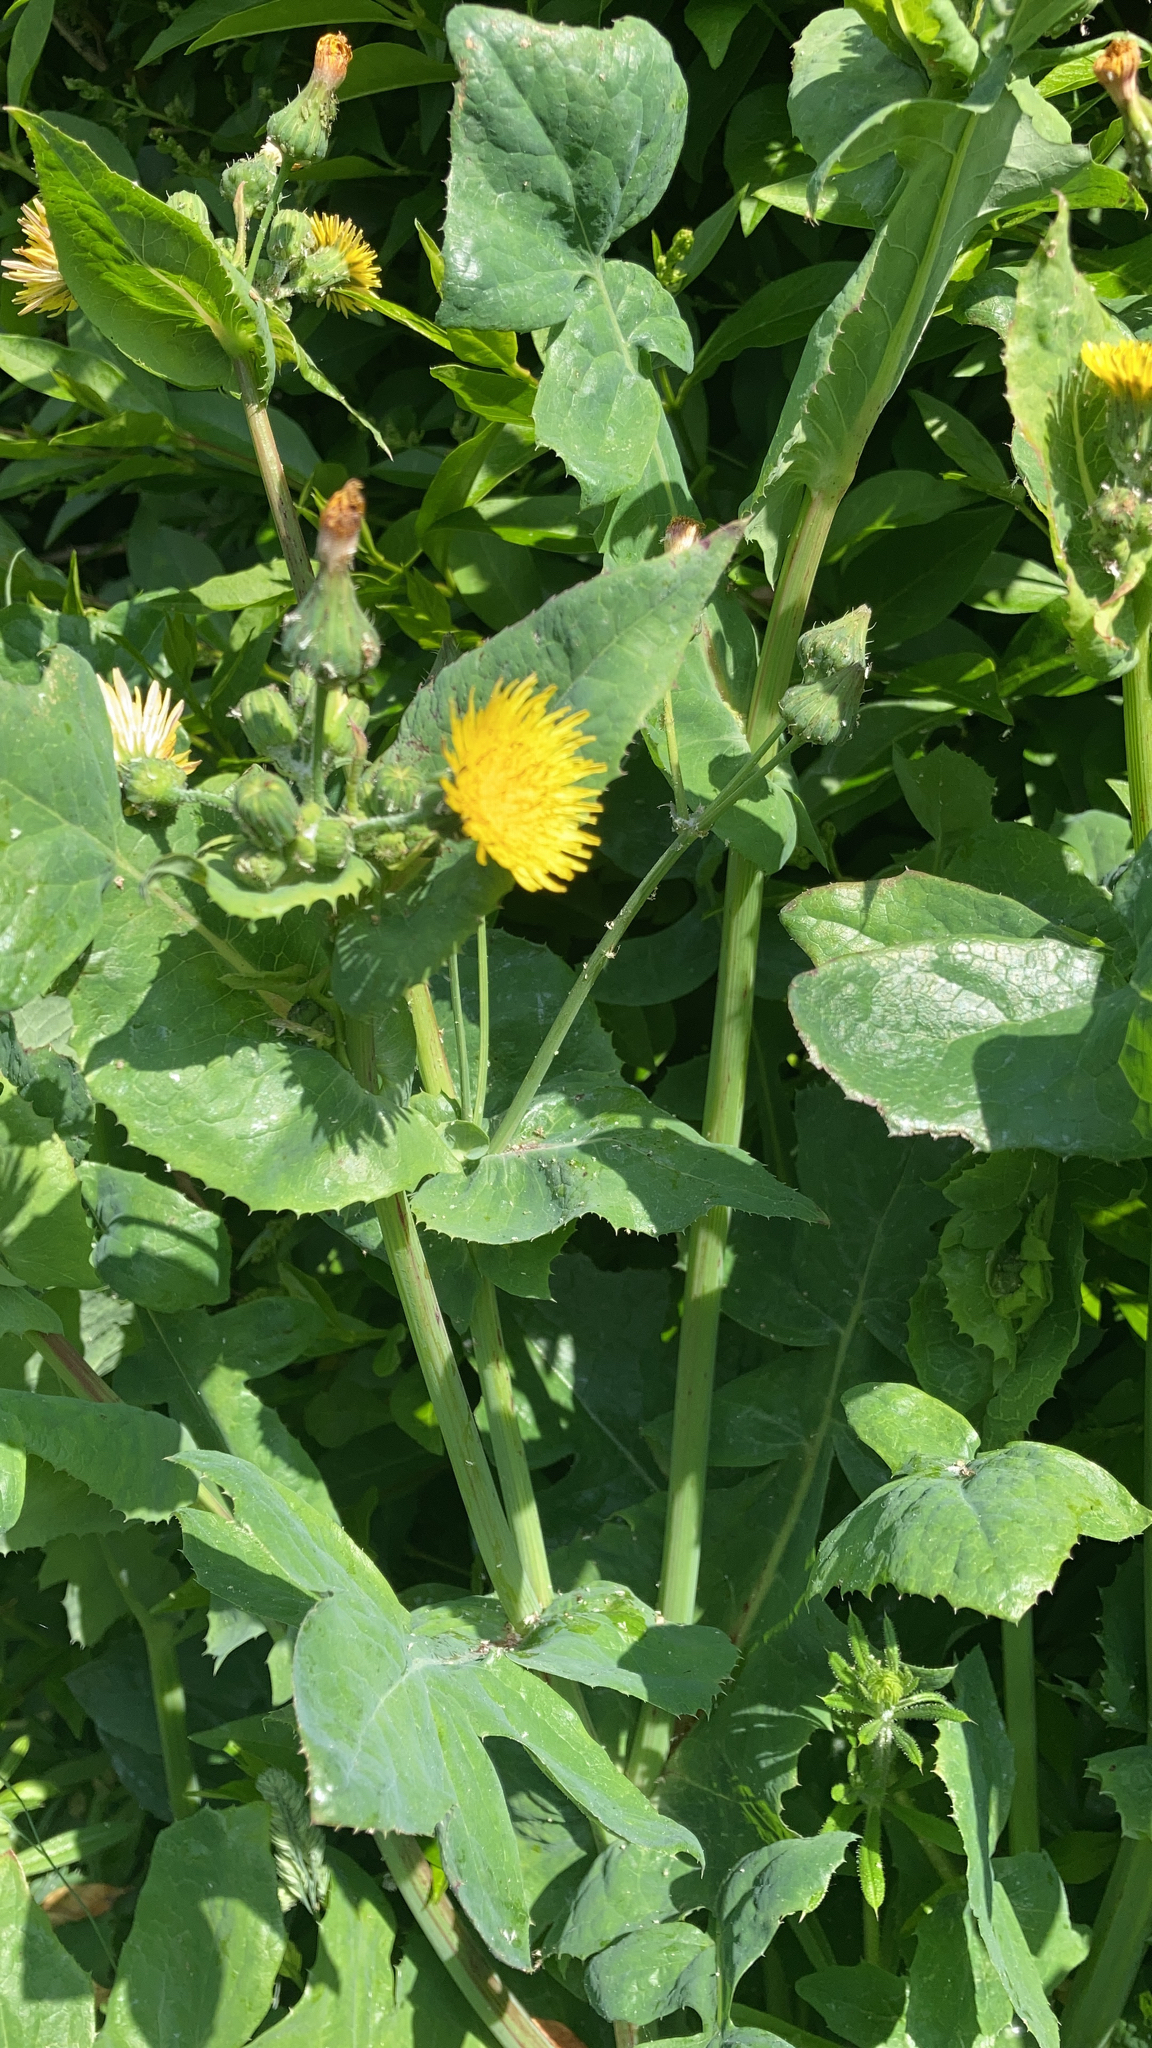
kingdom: Plantae
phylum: Tracheophyta
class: Magnoliopsida
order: Asterales
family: Asteraceae
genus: Sonchus
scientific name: Sonchus oleraceus
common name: Common sowthistle
